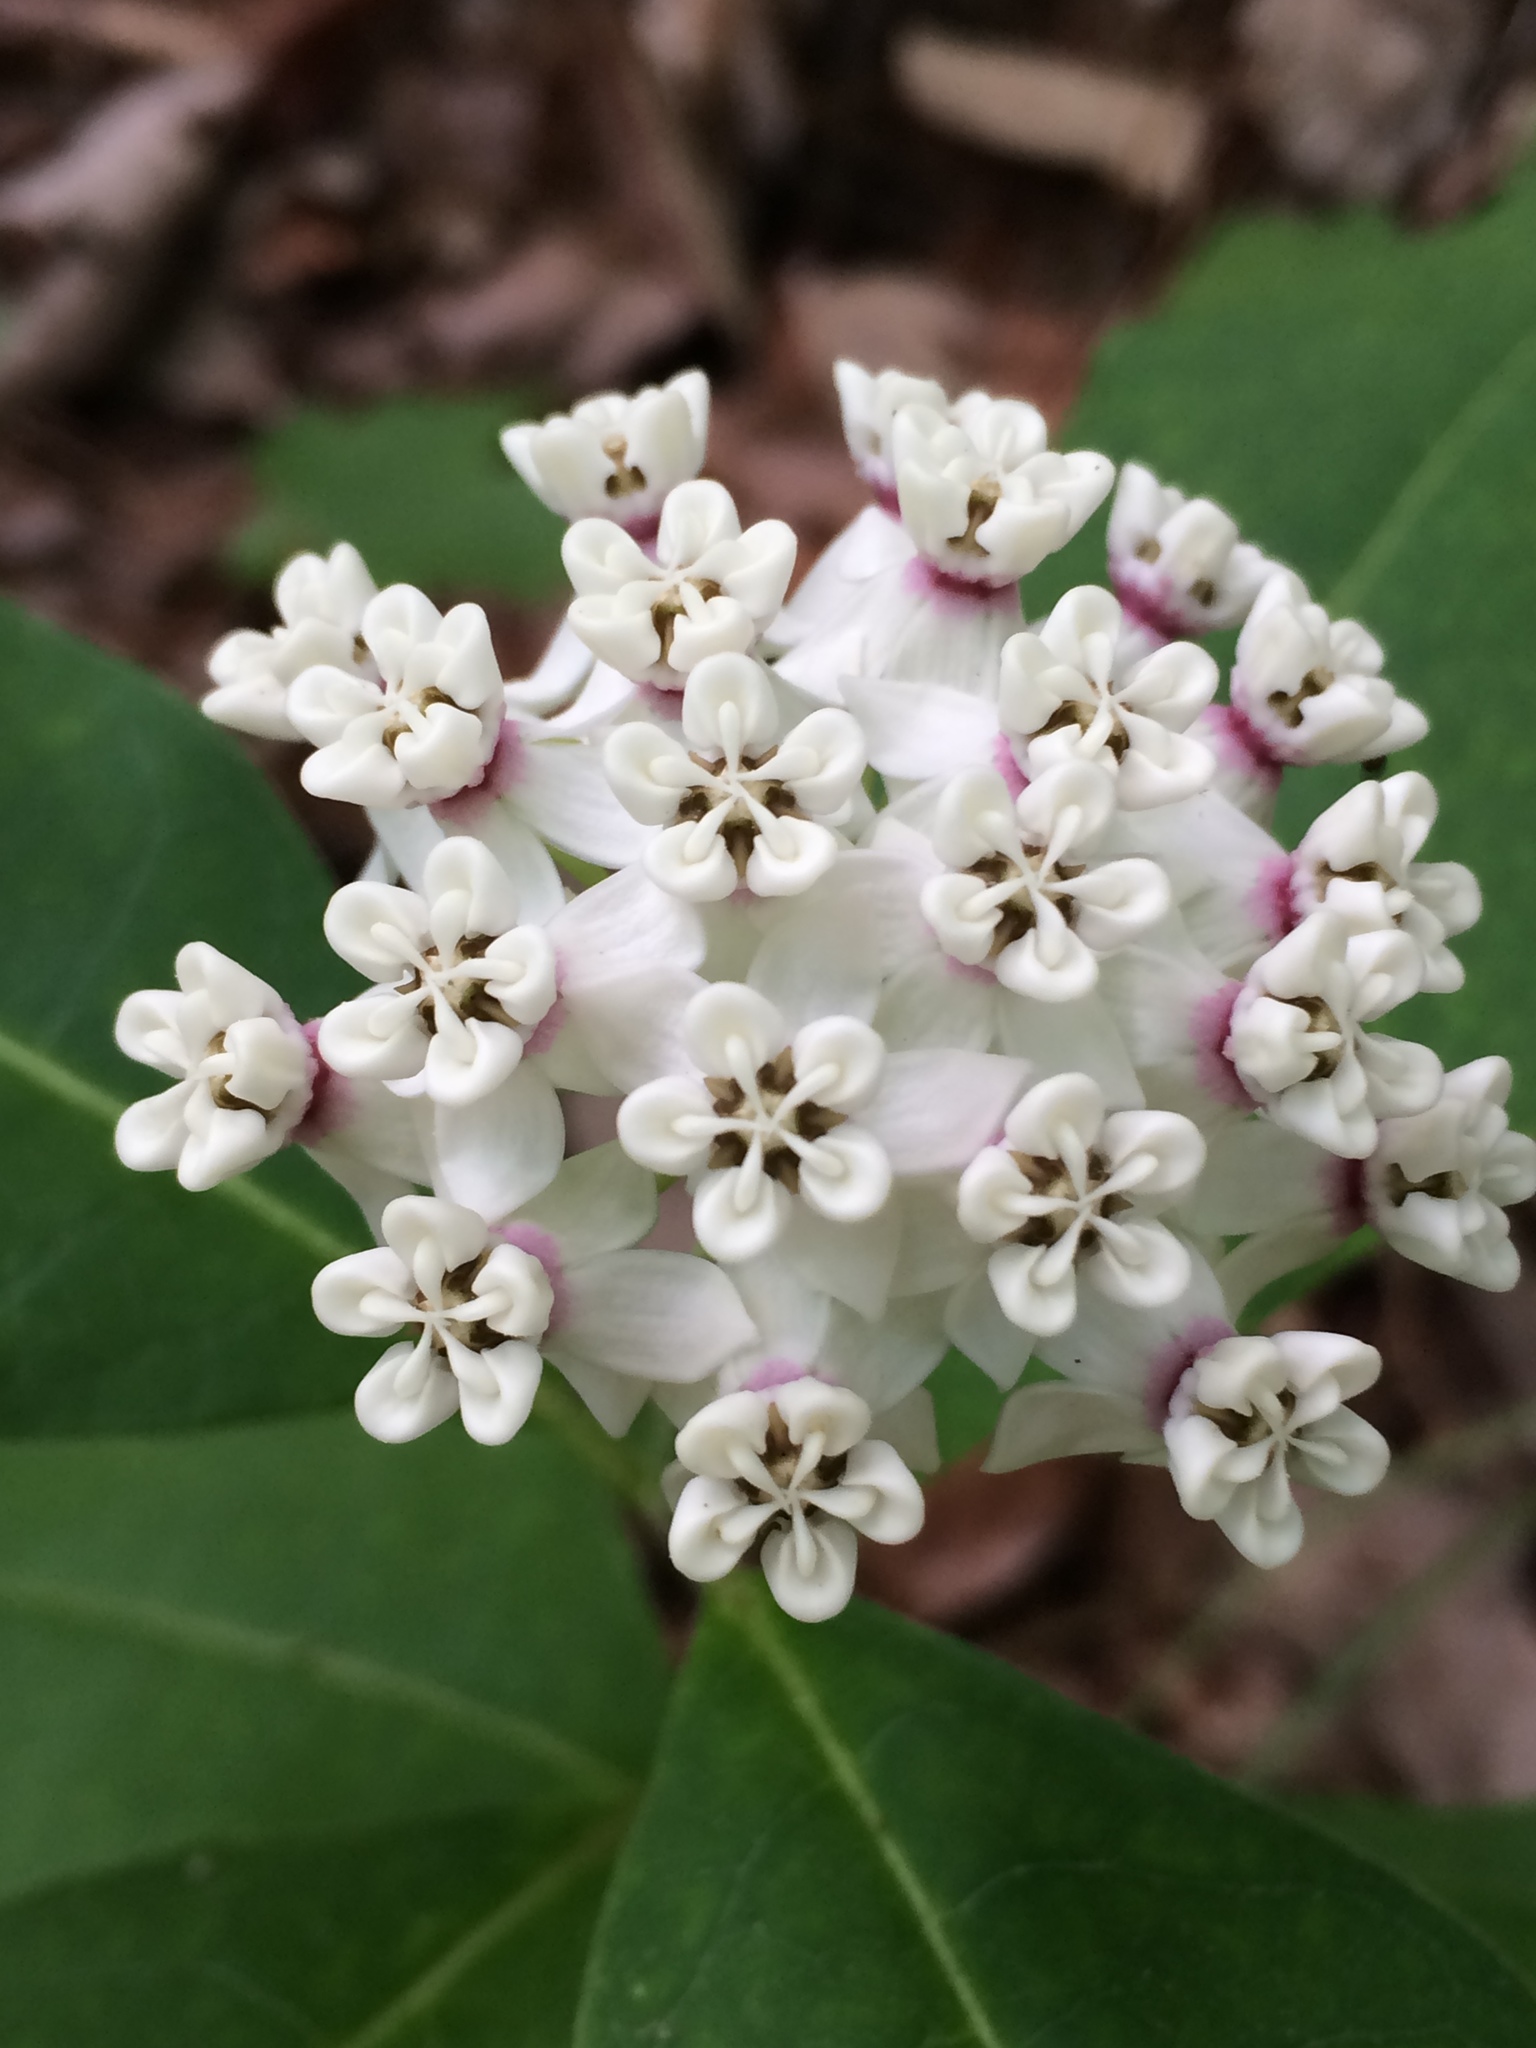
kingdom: Plantae
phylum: Tracheophyta
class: Magnoliopsida
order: Gentianales
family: Apocynaceae
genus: Asclepias
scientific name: Asclepias variegata
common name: Variegated milkweed
